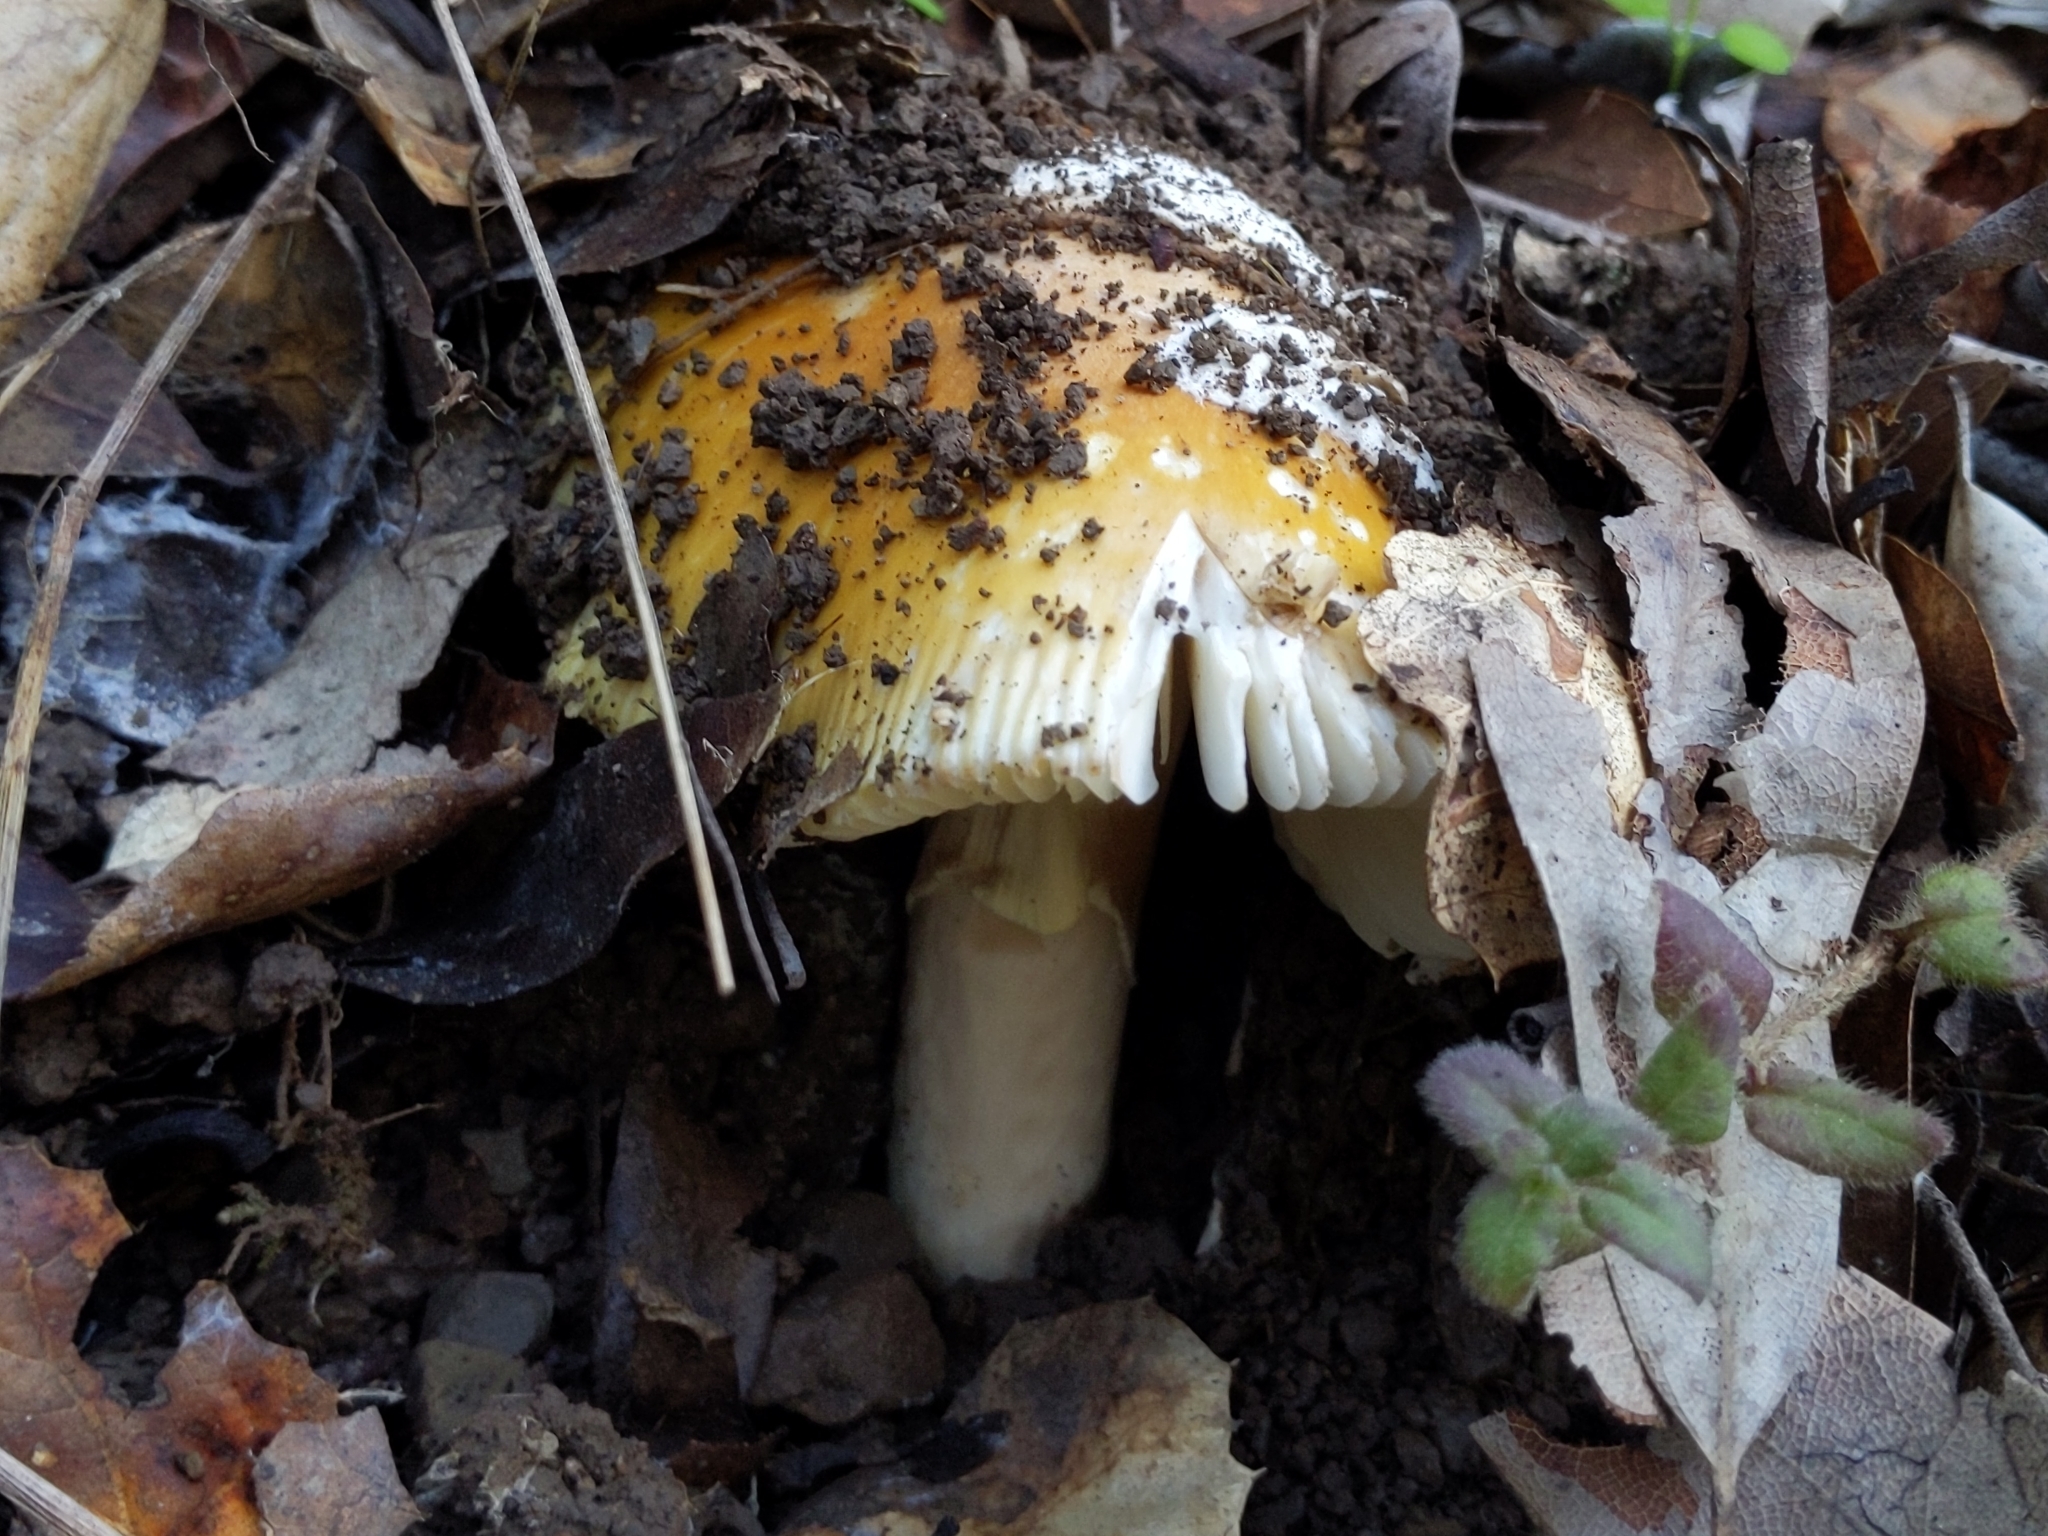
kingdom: Fungi
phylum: Basidiomycota
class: Agaricomycetes
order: Agaricales
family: Amanitaceae
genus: Amanita
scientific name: Amanita calyptroderma
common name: Coccora
